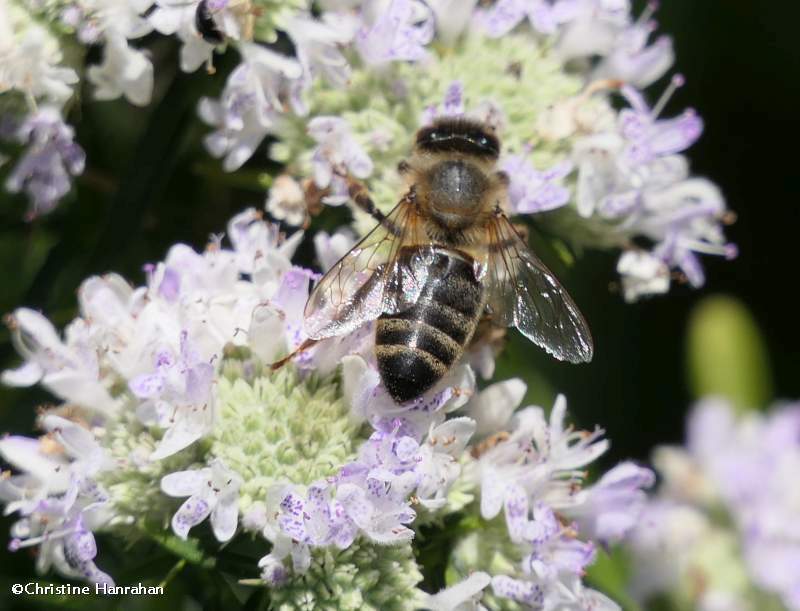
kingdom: Animalia
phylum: Arthropoda
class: Insecta
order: Hymenoptera
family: Apidae
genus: Apis
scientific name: Apis mellifera
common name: Honey bee
